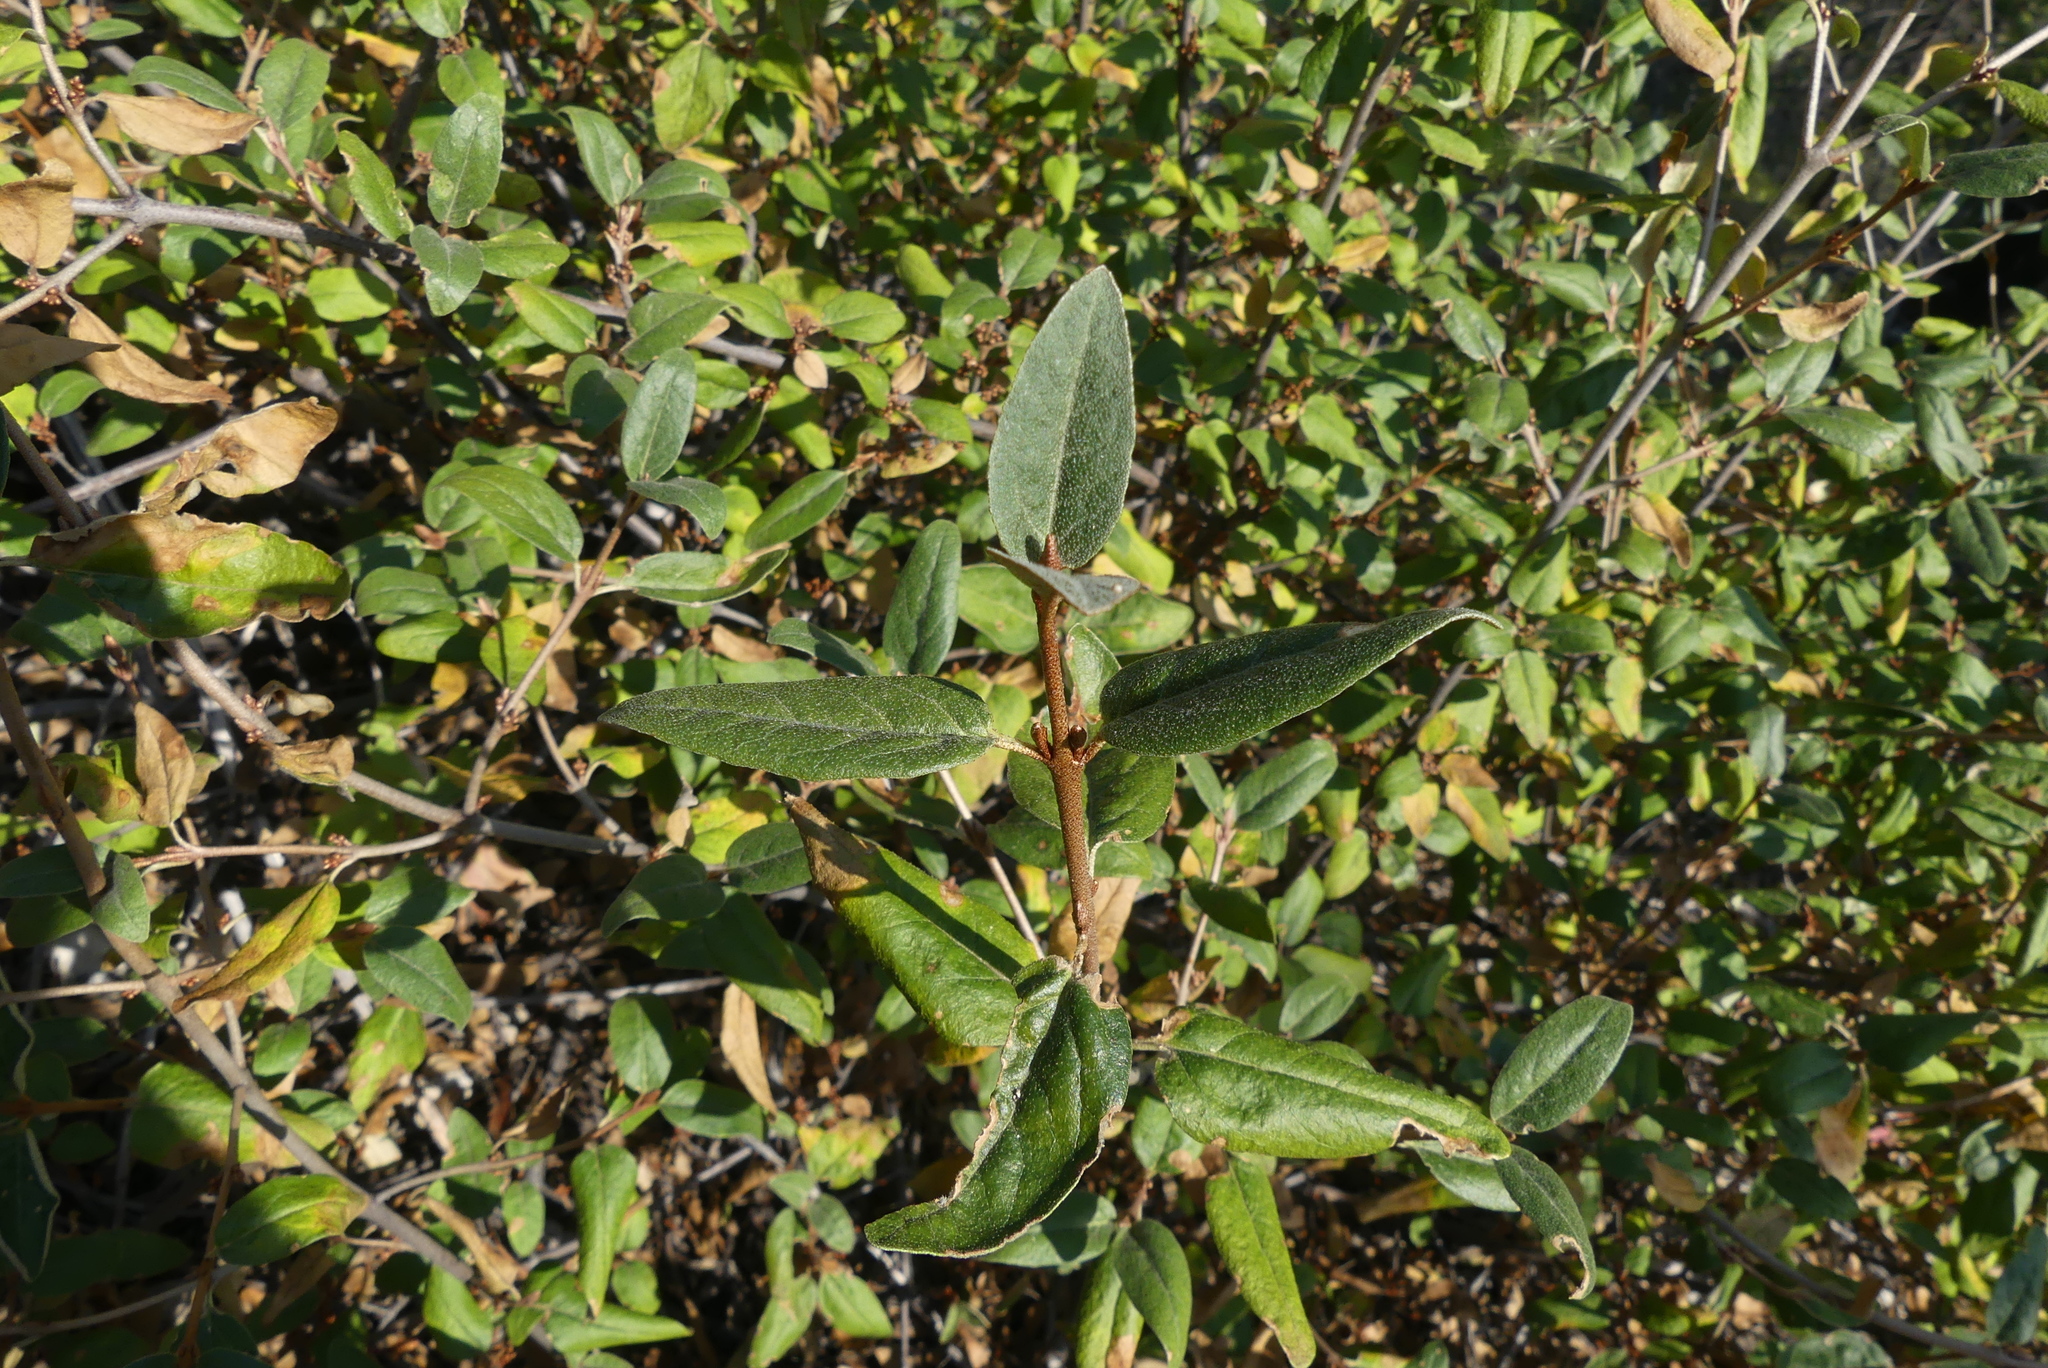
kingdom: Plantae
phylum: Tracheophyta
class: Magnoliopsida
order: Rosales
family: Elaeagnaceae
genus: Shepherdia
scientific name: Shepherdia canadensis
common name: Soapberry
